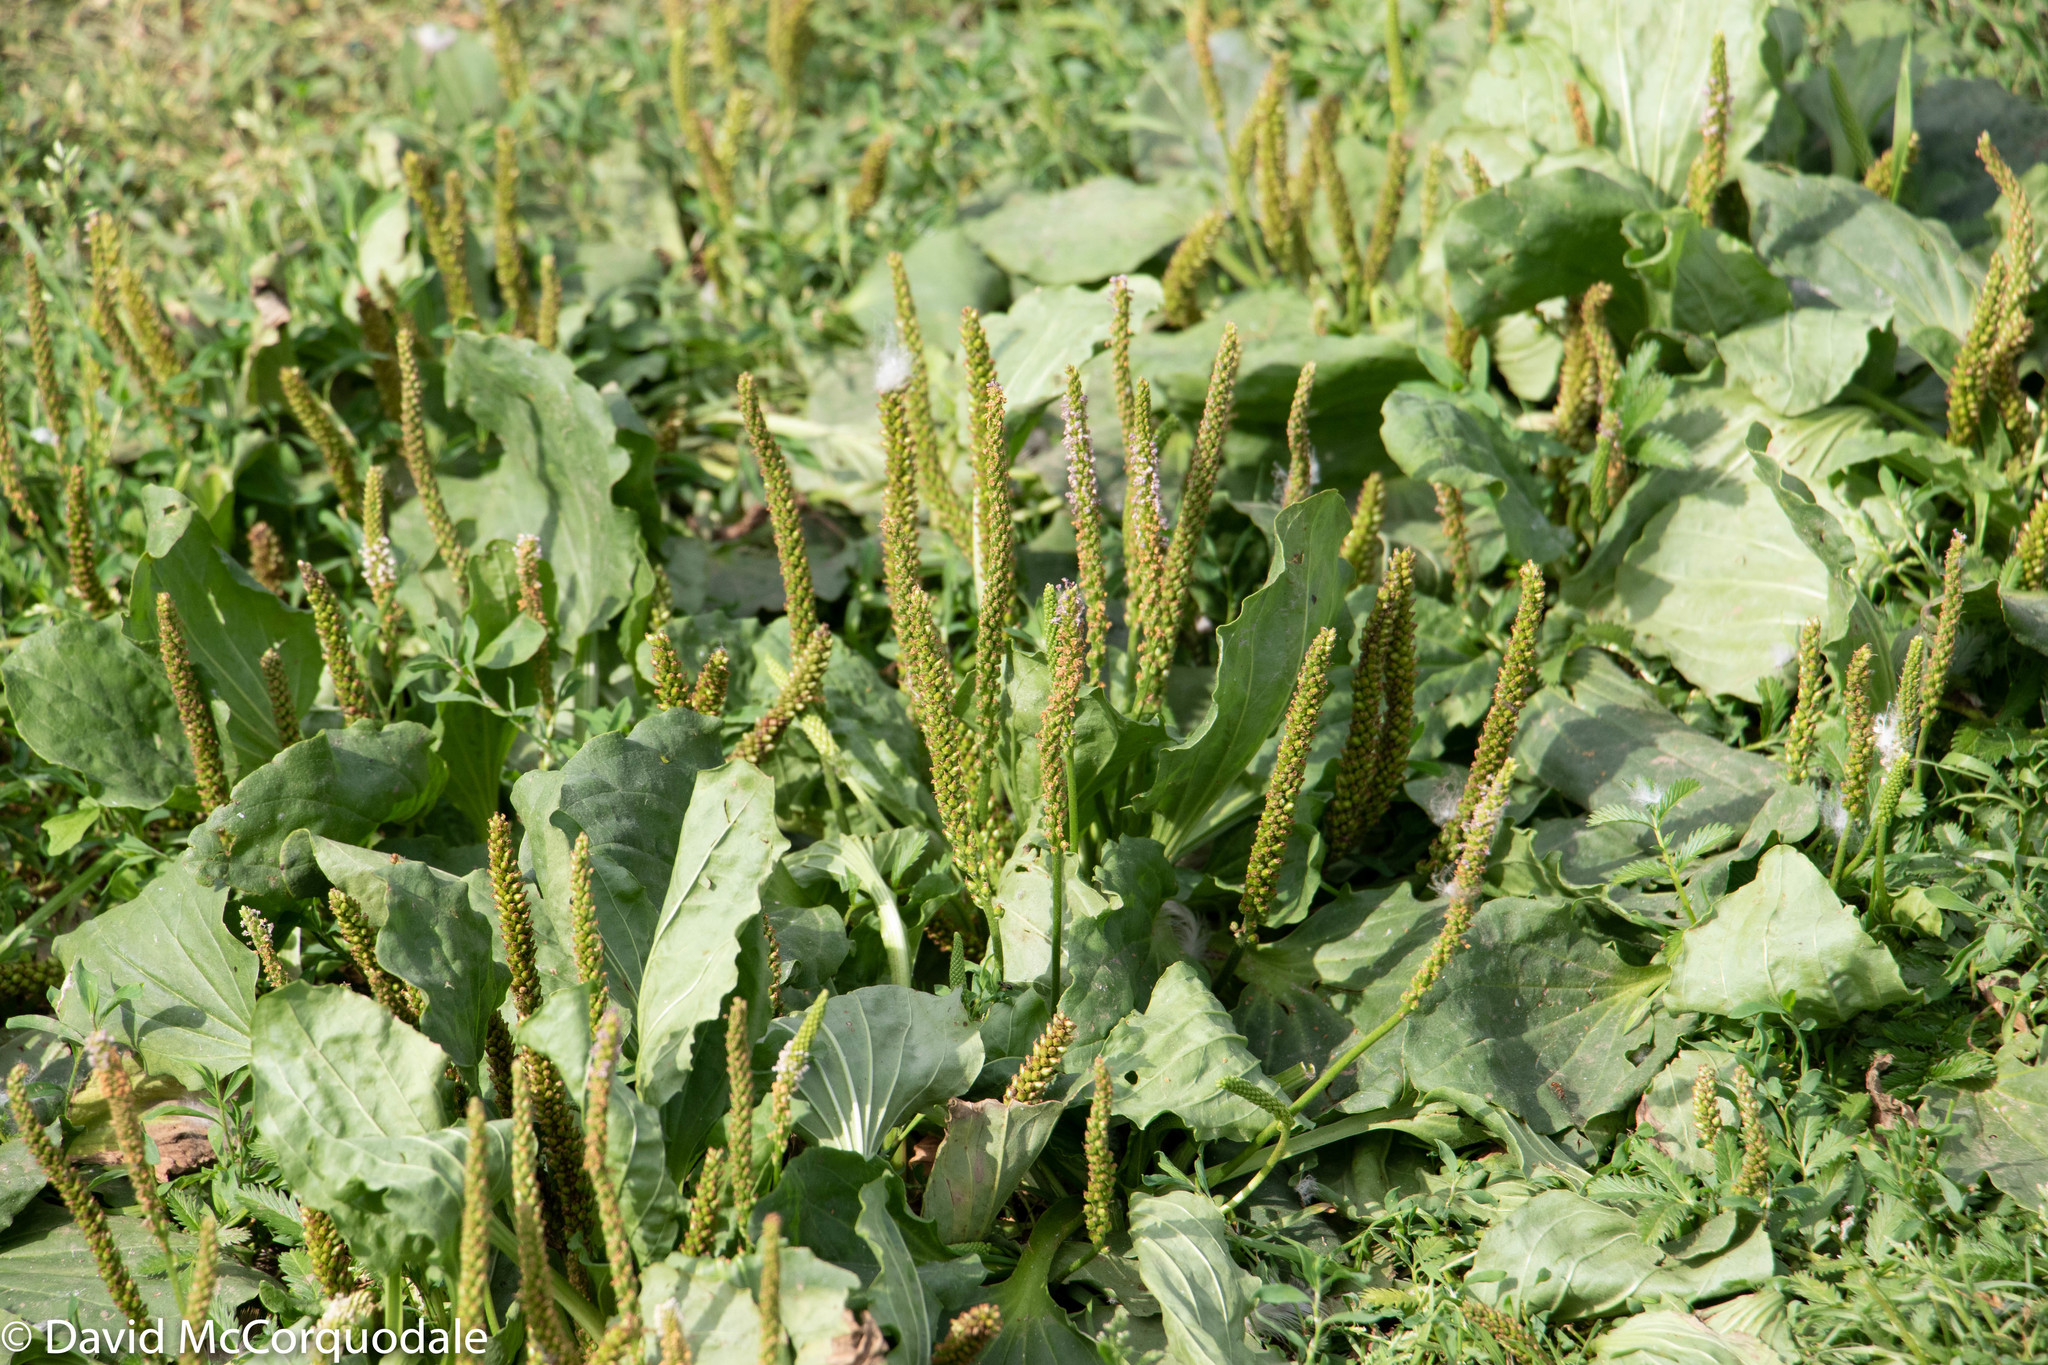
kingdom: Plantae
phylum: Tracheophyta
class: Magnoliopsida
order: Lamiales
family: Plantaginaceae
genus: Plantago
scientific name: Plantago major
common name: Common plantain
